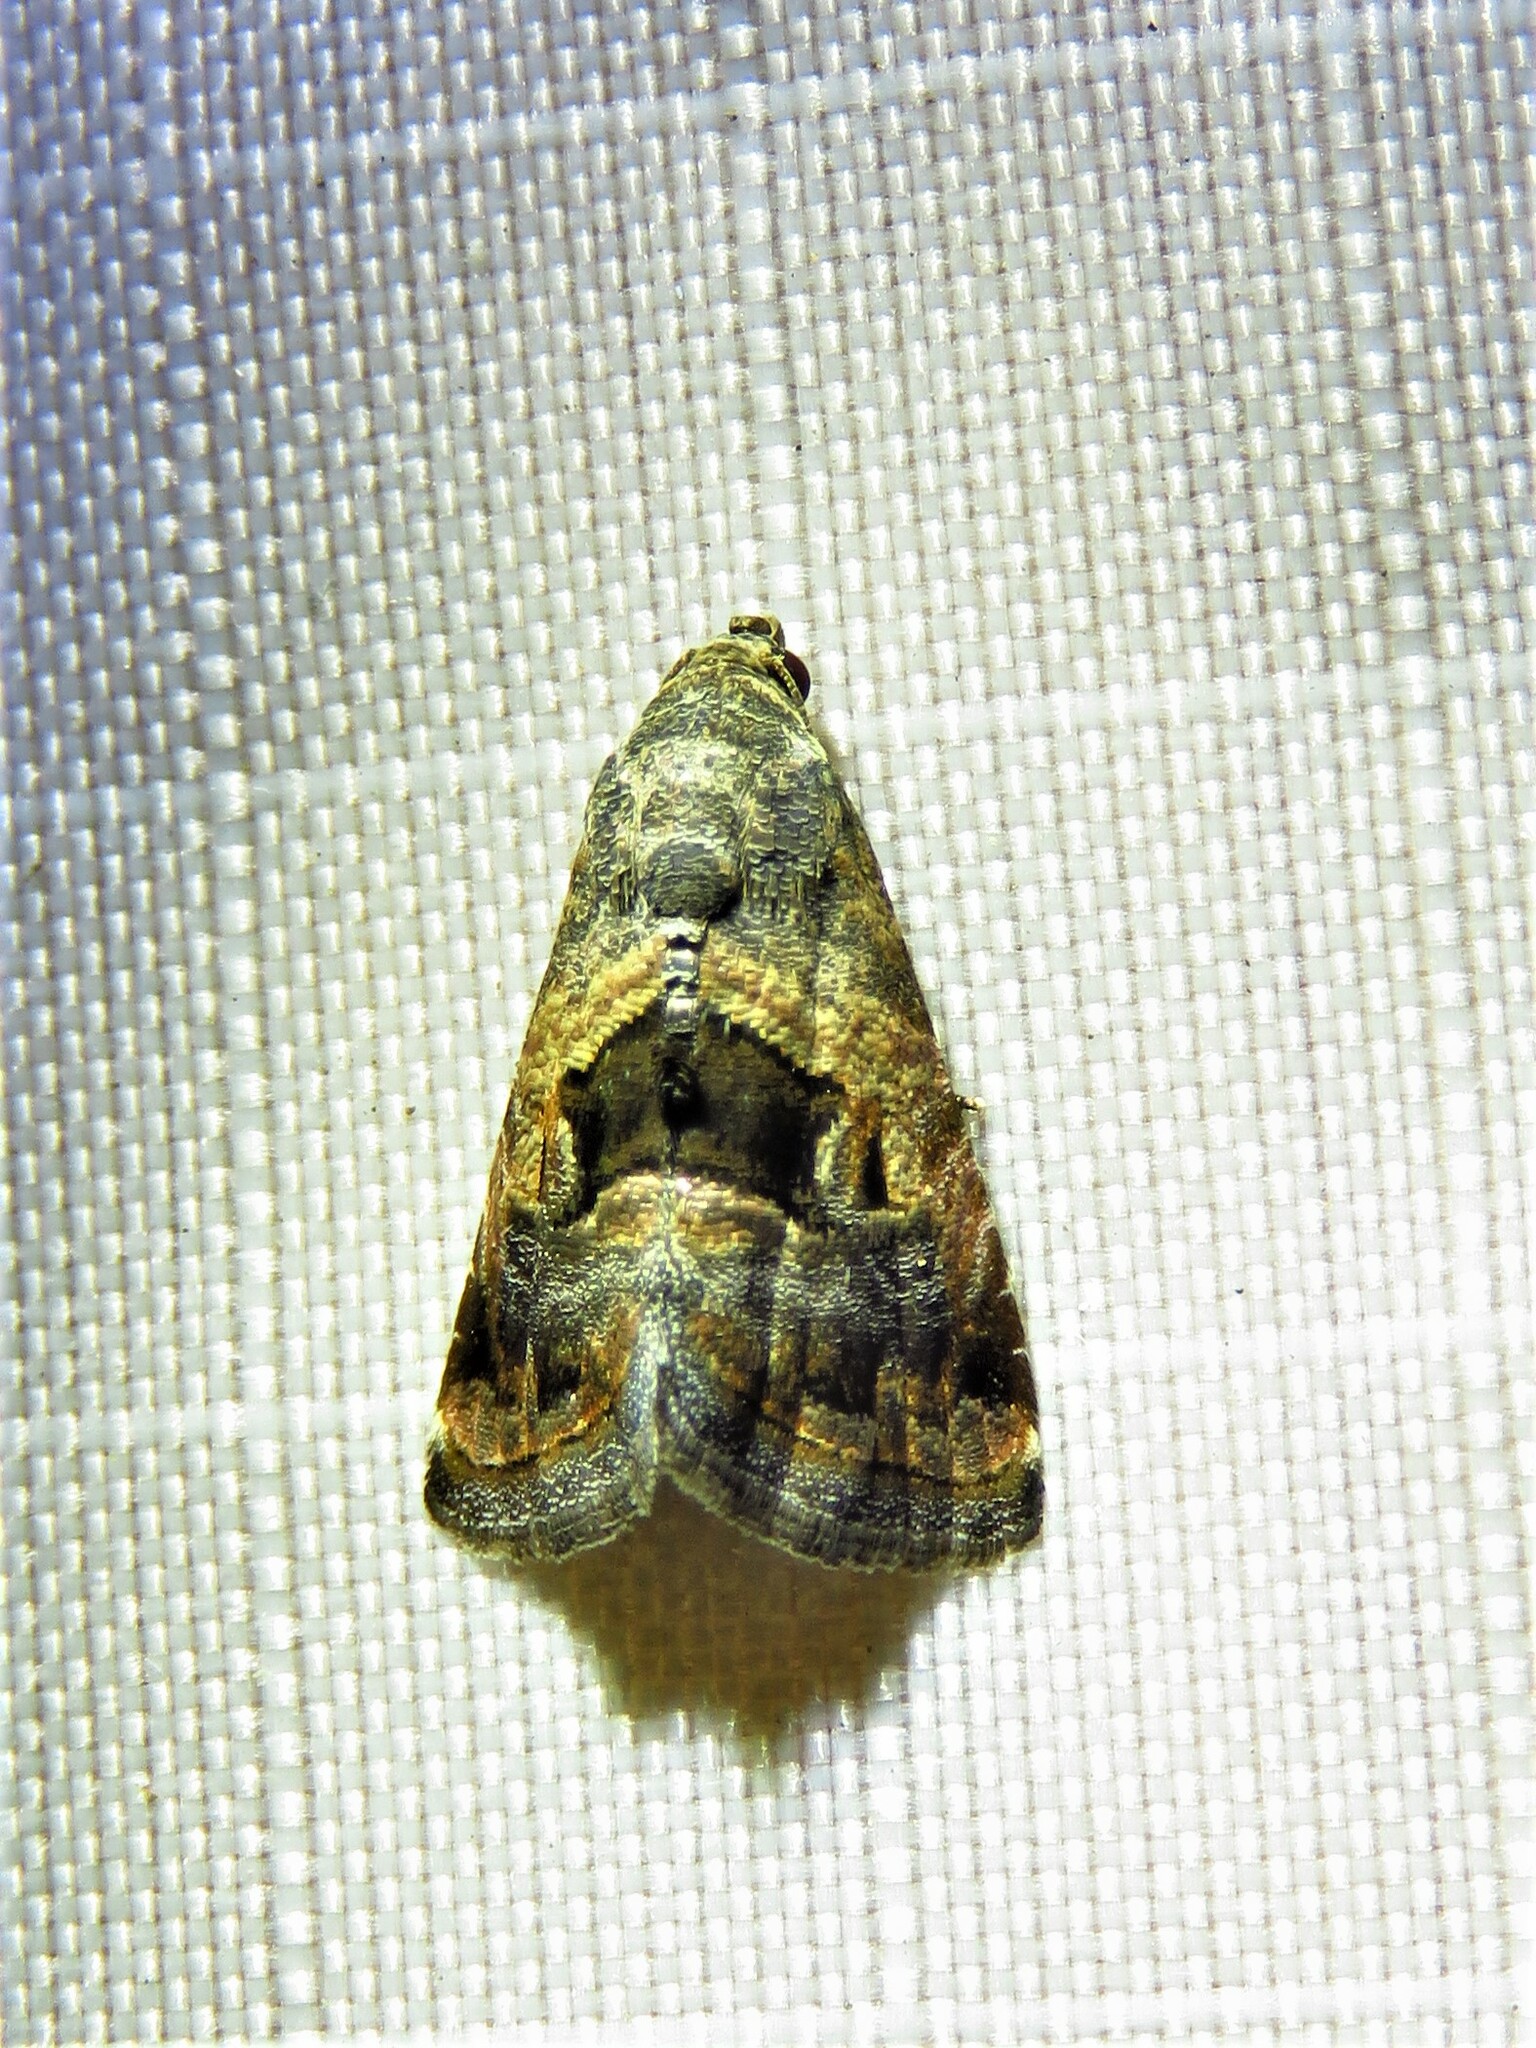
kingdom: Animalia
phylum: Arthropoda
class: Insecta
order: Lepidoptera
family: Noctuidae
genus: Tripudia
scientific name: Tripudia quadrifera
